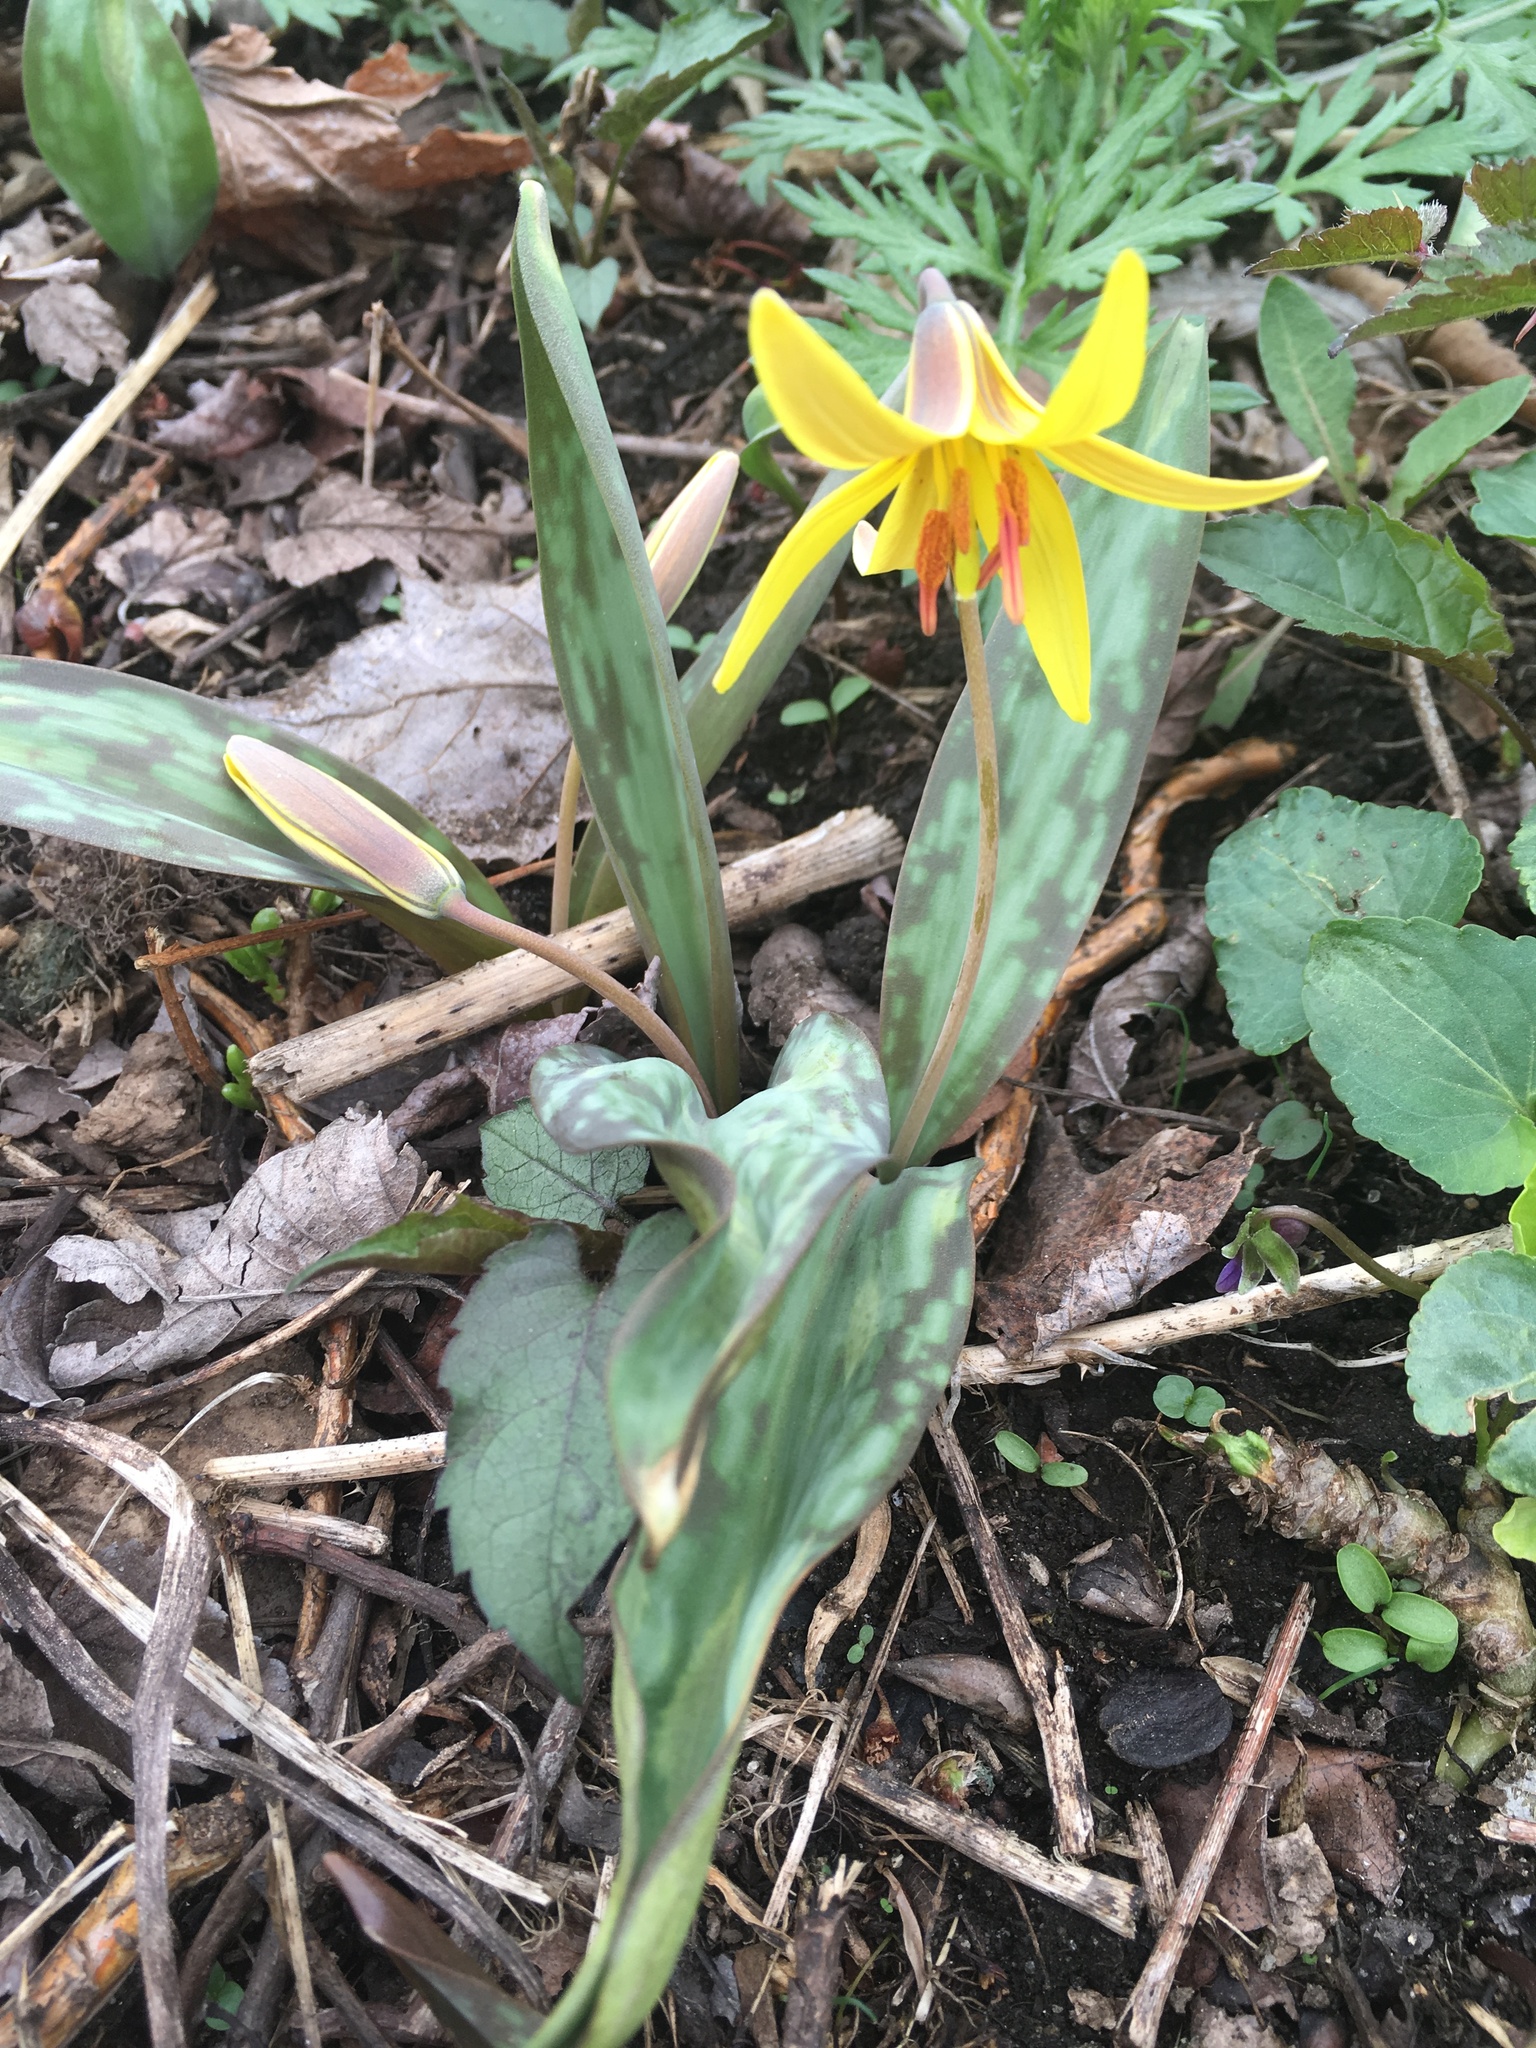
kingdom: Plantae
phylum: Tracheophyta
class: Liliopsida
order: Liliales
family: Liliaceae
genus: Erythronium
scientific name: Erythronium americanum
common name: Yellow adder's-tongue
